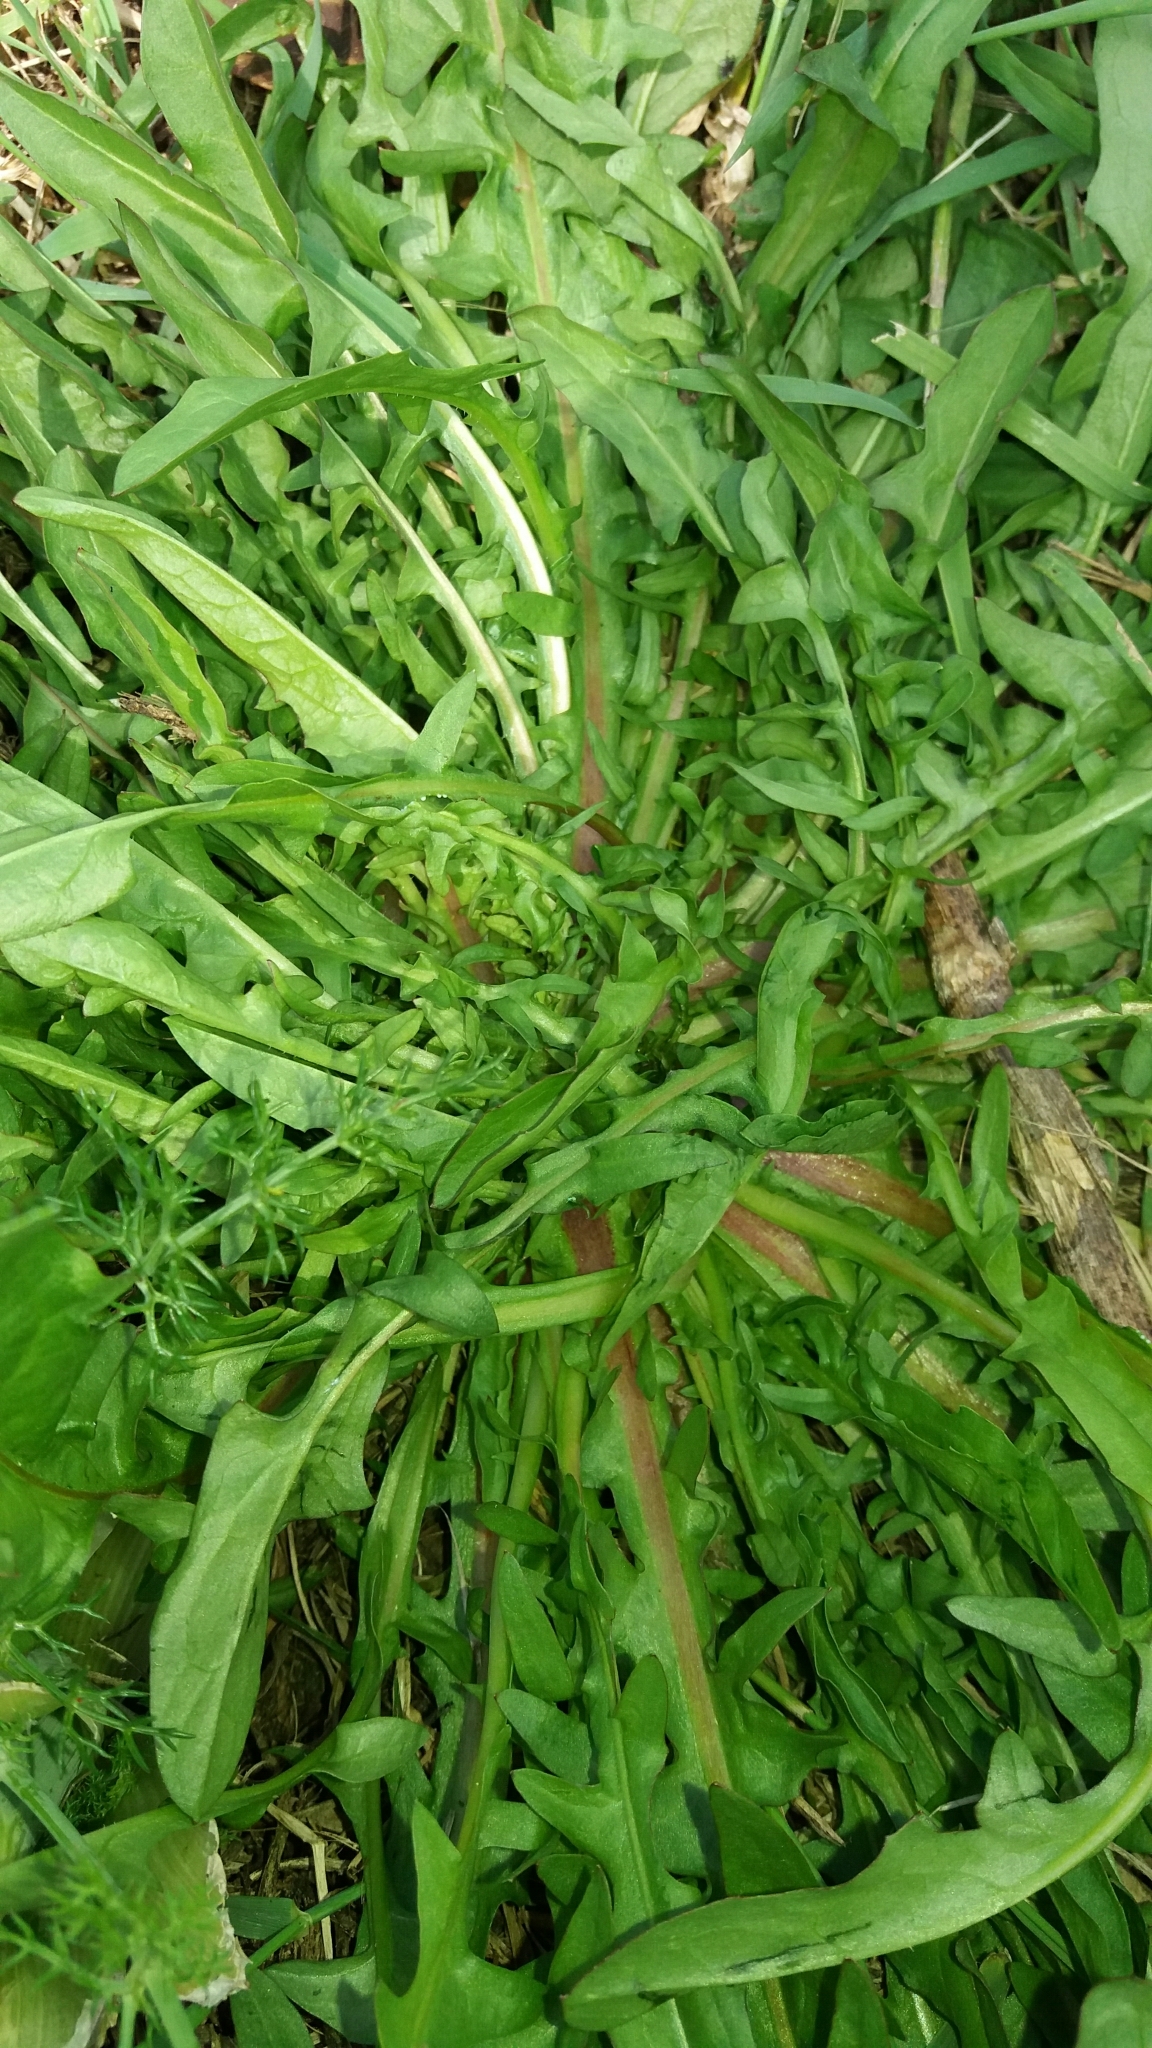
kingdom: Plantae
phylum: Tracheophyta
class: Magnoliopsida
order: Asterales
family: Asteraceae
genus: Taraxacum
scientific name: Taraxacum officinale
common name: Common dandelion
